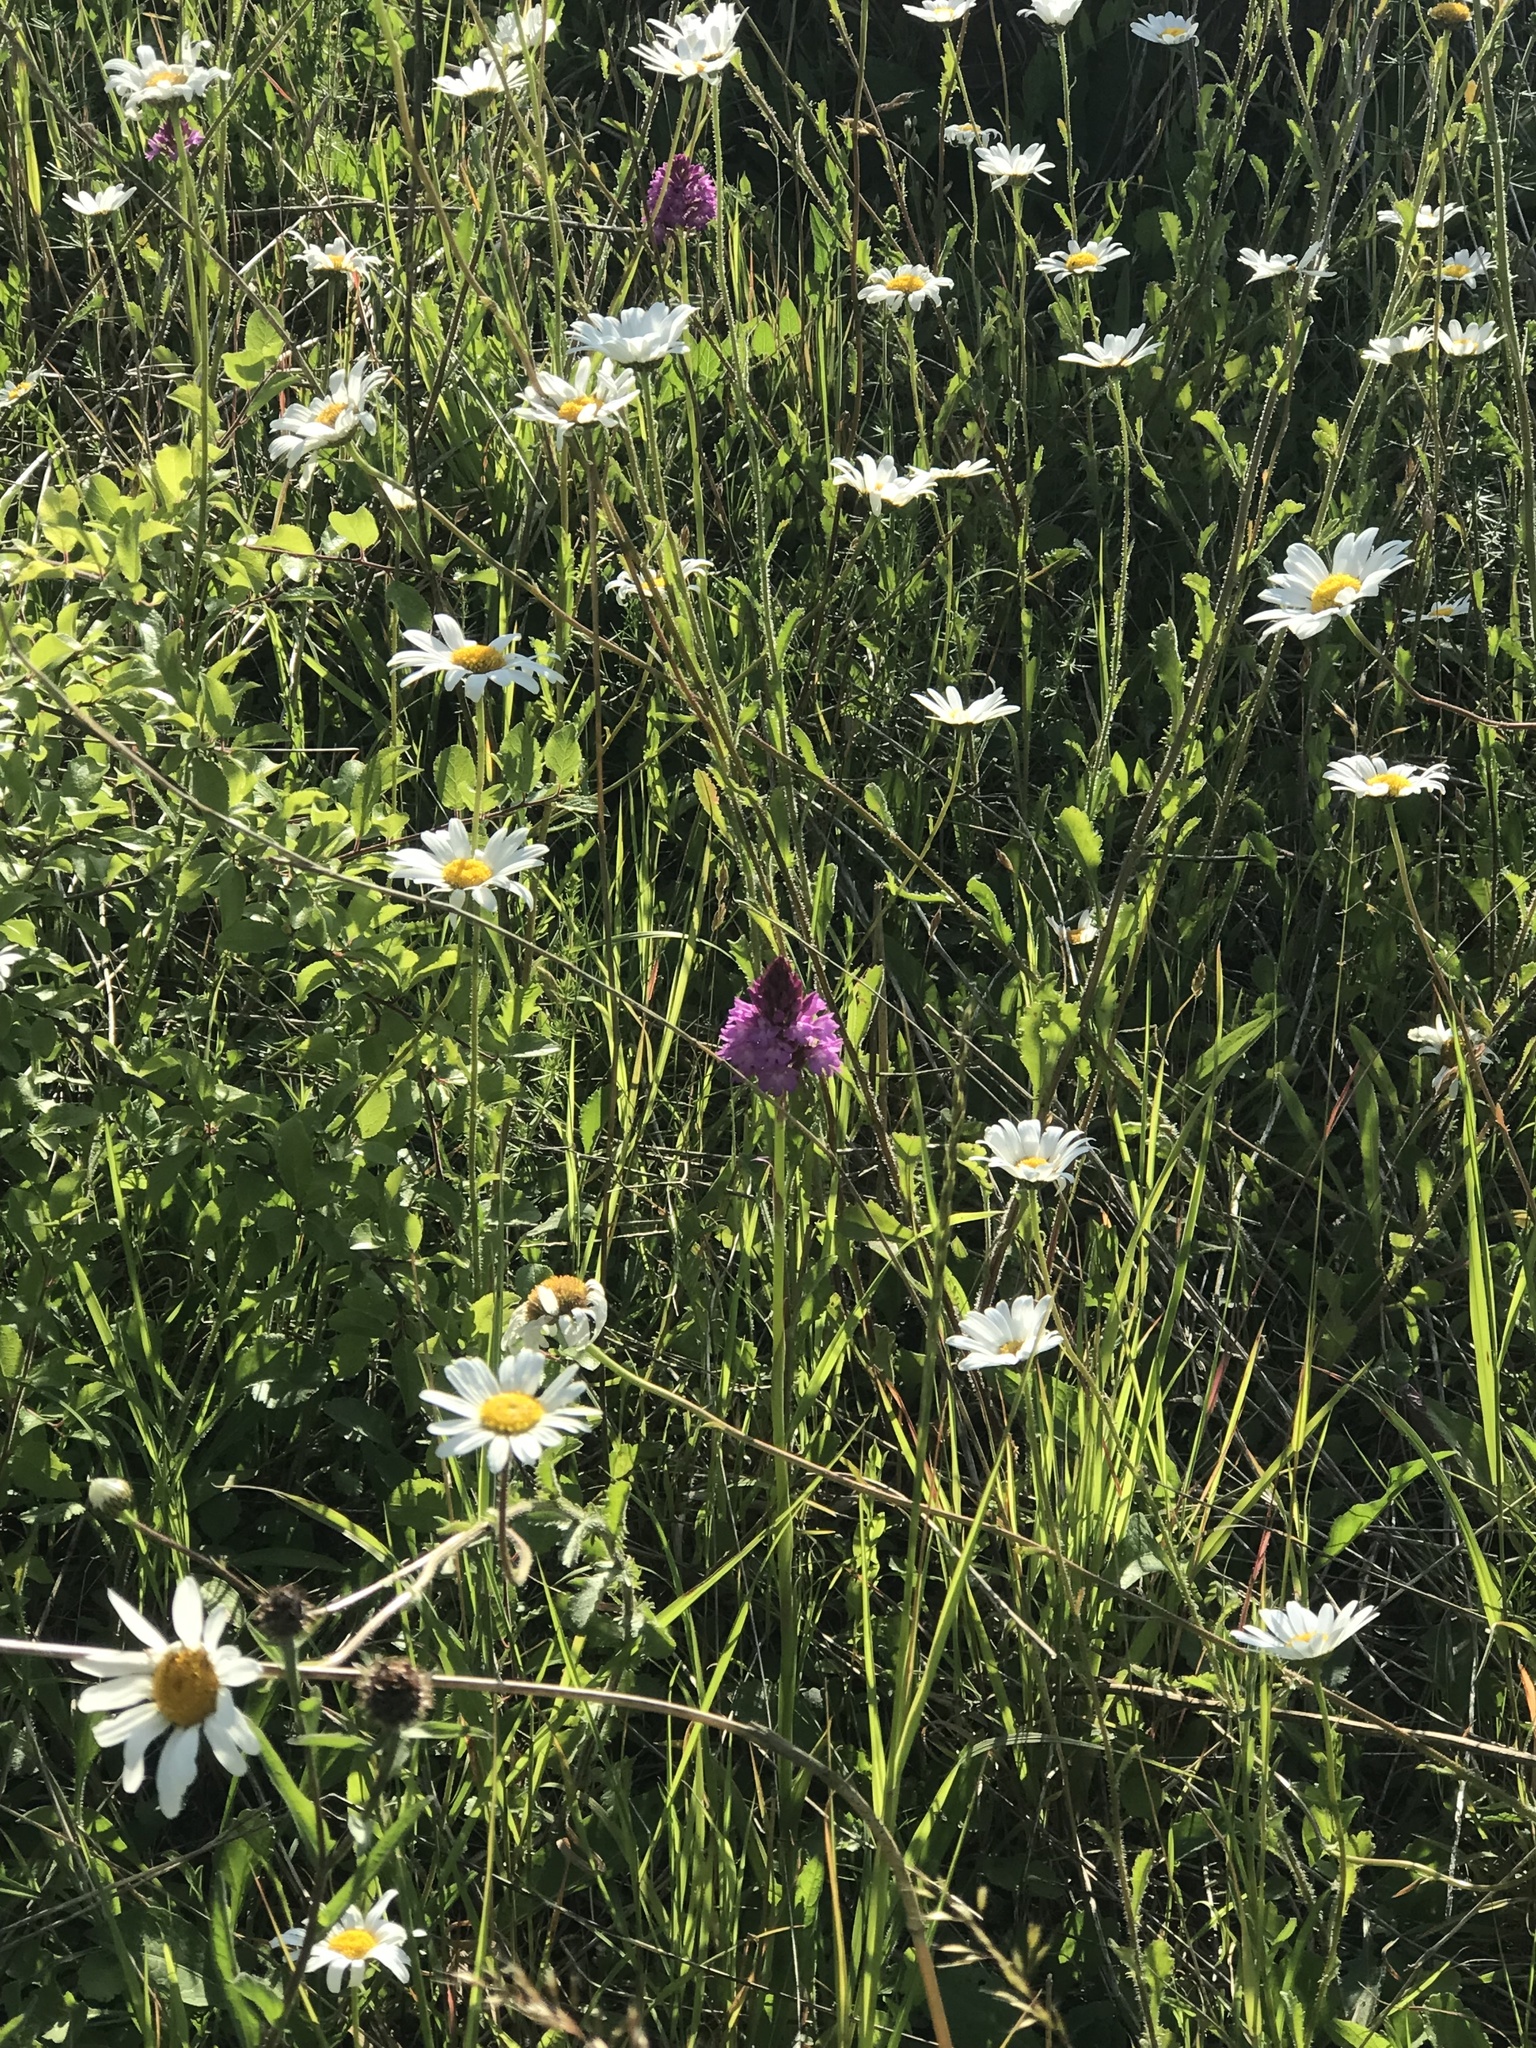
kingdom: Plantae
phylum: Tracheophyta
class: Magnoliopsida
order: Asterales
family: Asteraceae
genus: Leucanthemum
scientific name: Leucanthemum vulgare
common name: Oxeye daisy
